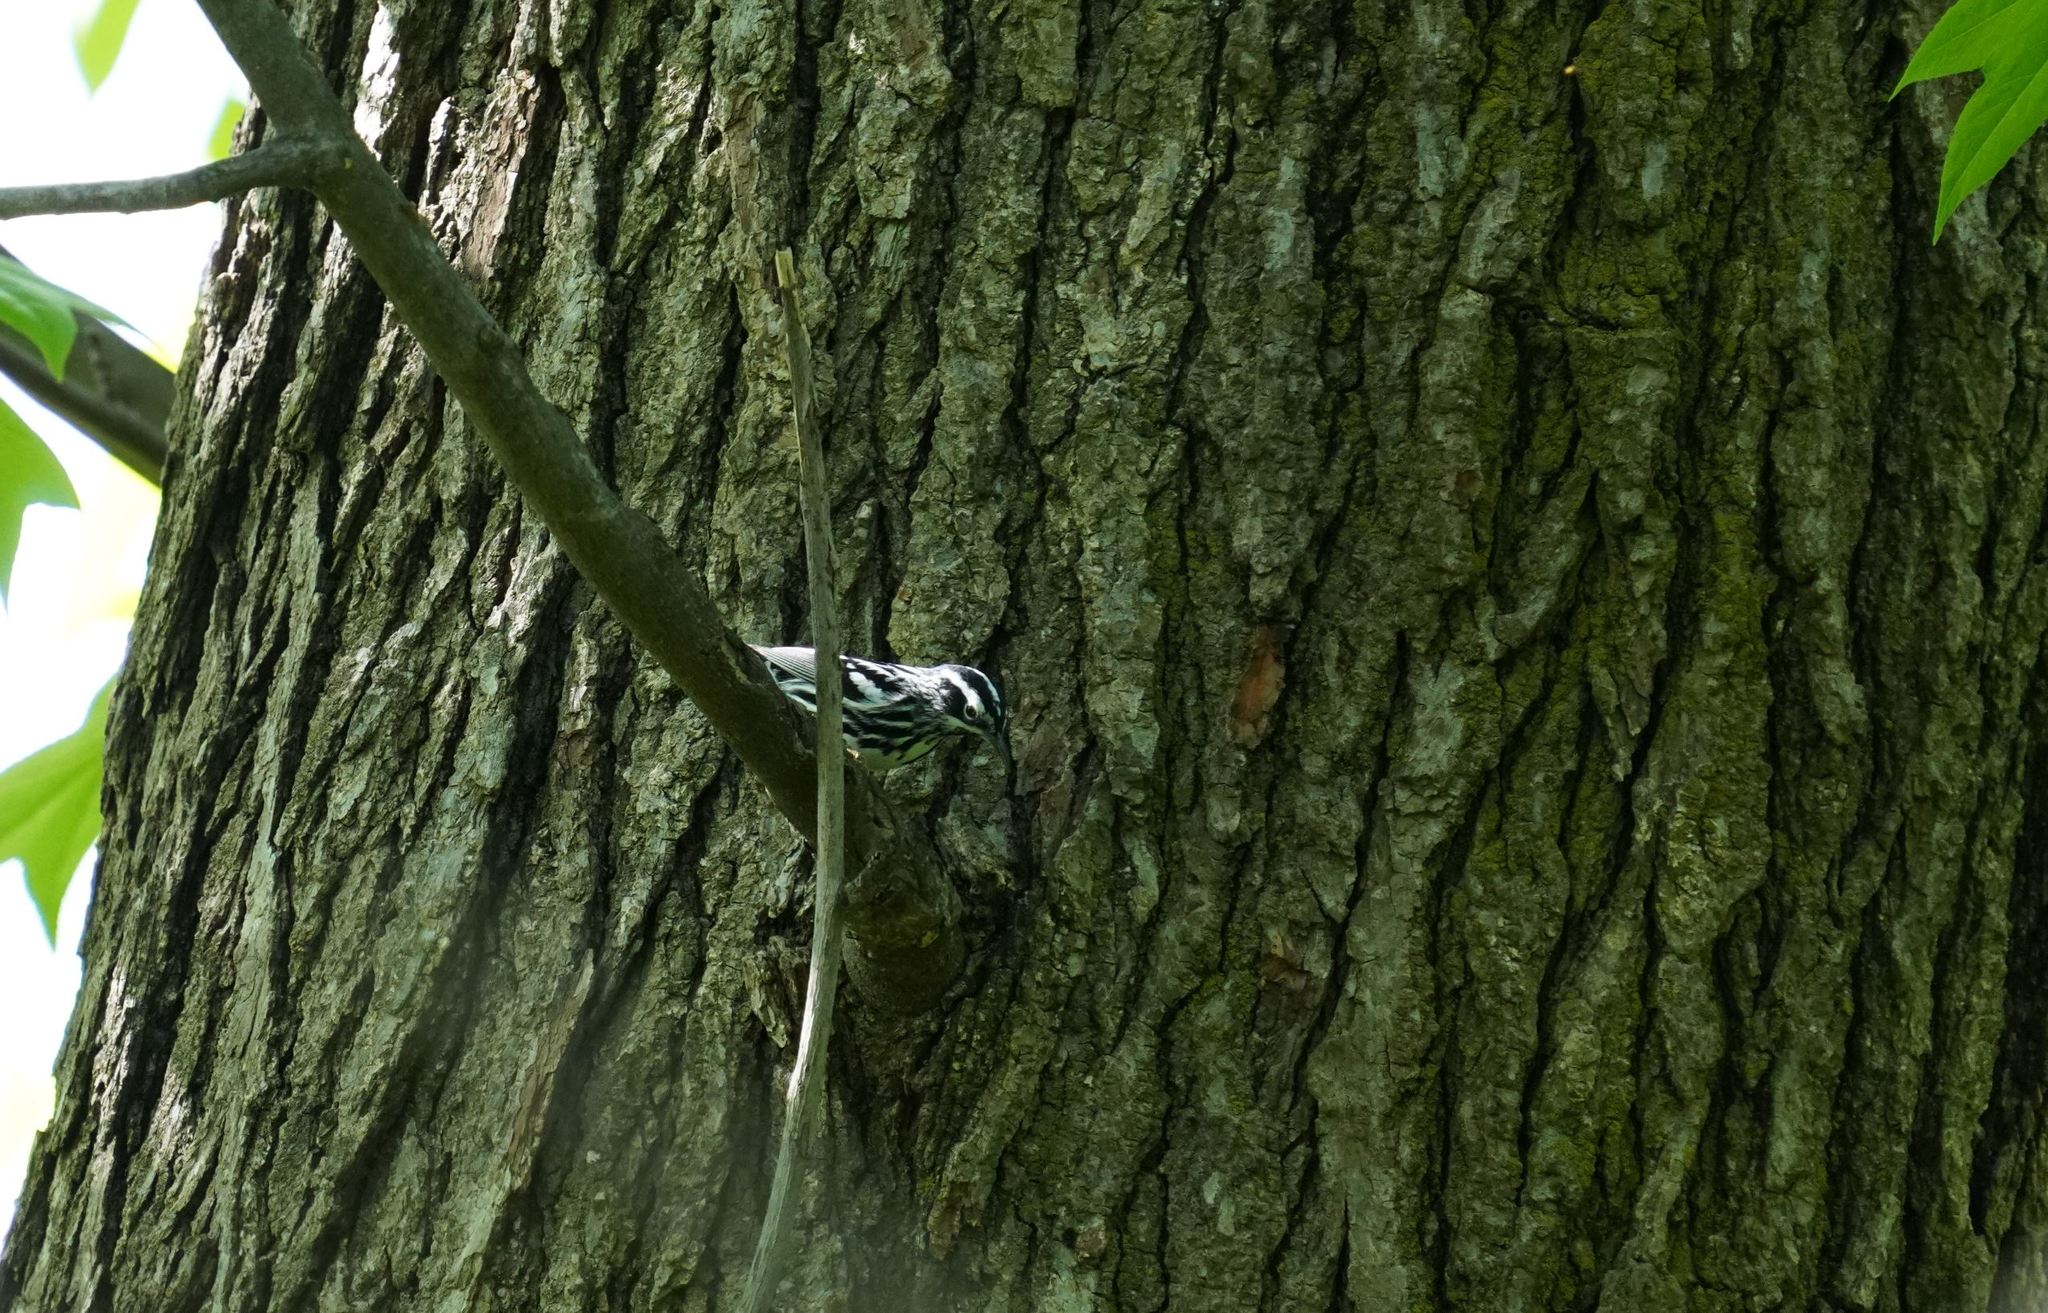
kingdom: Animalia
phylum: Chordata
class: Aves
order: Passeriformes
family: Parulidae
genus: Mniotilta
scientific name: Mniotilta varia
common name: Black-and-white warbler
